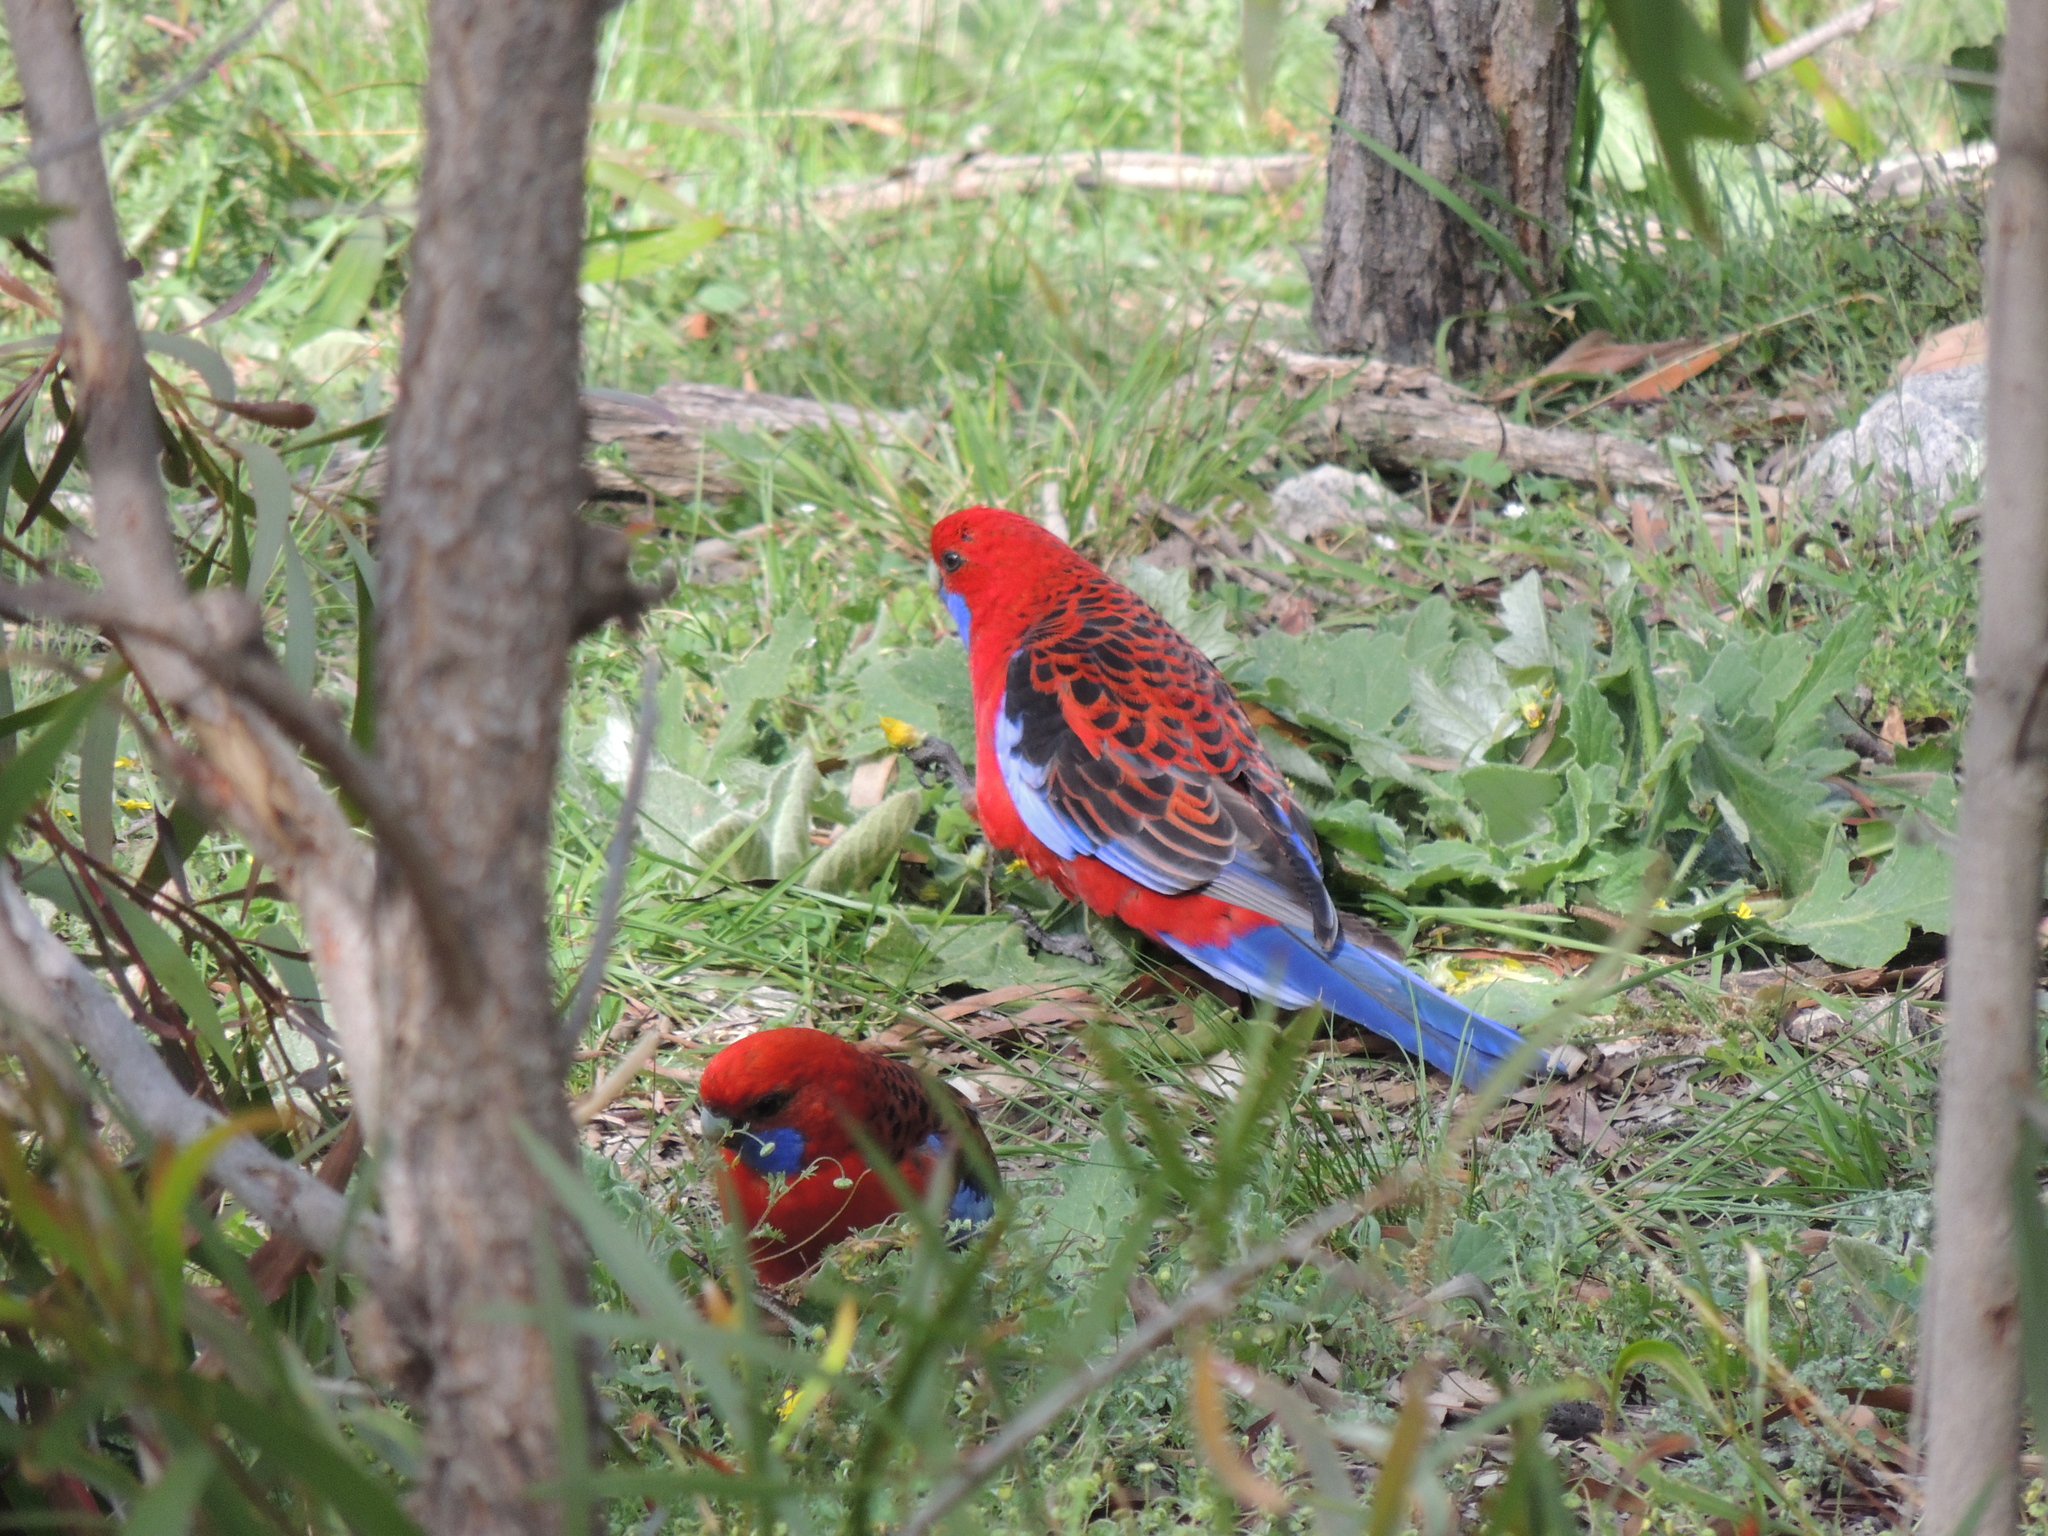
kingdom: Animalia
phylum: Chordata
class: Aves
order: Psittaciformes
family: Psittacidae
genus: Platycercus
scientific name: Platycercus elegans
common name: Crimson rosella
